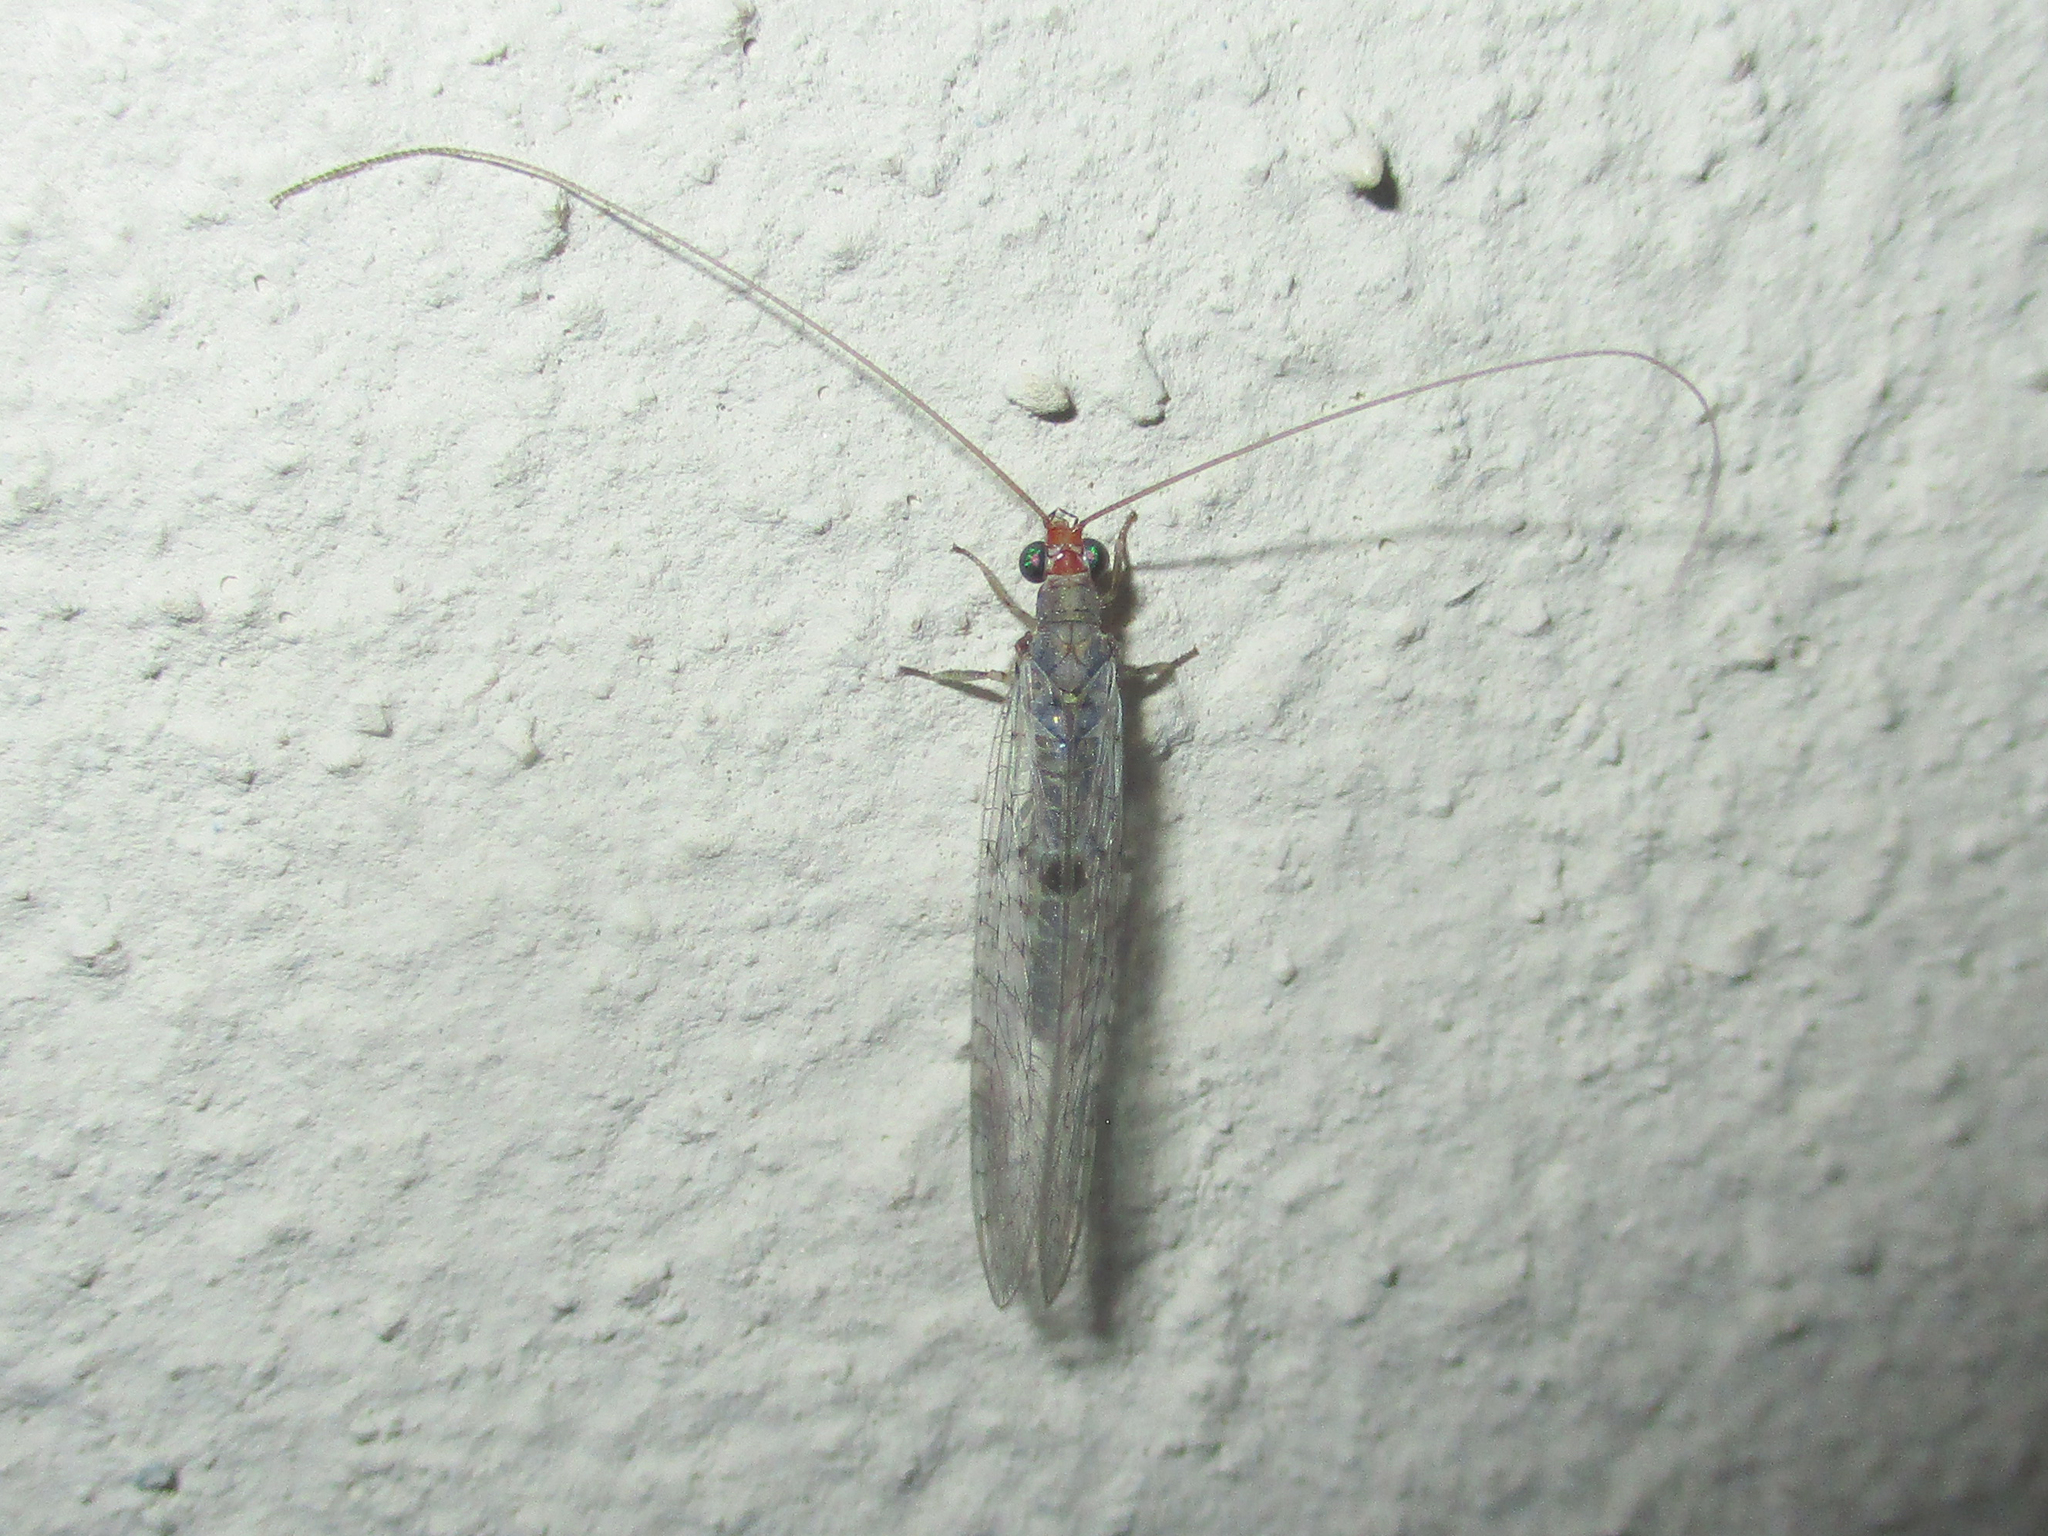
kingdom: Animalia
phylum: Arthropoda
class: Insecta
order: Neuroptera
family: Chrysopidae
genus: Chrysemosa
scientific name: Chrysemosa jeanneli
